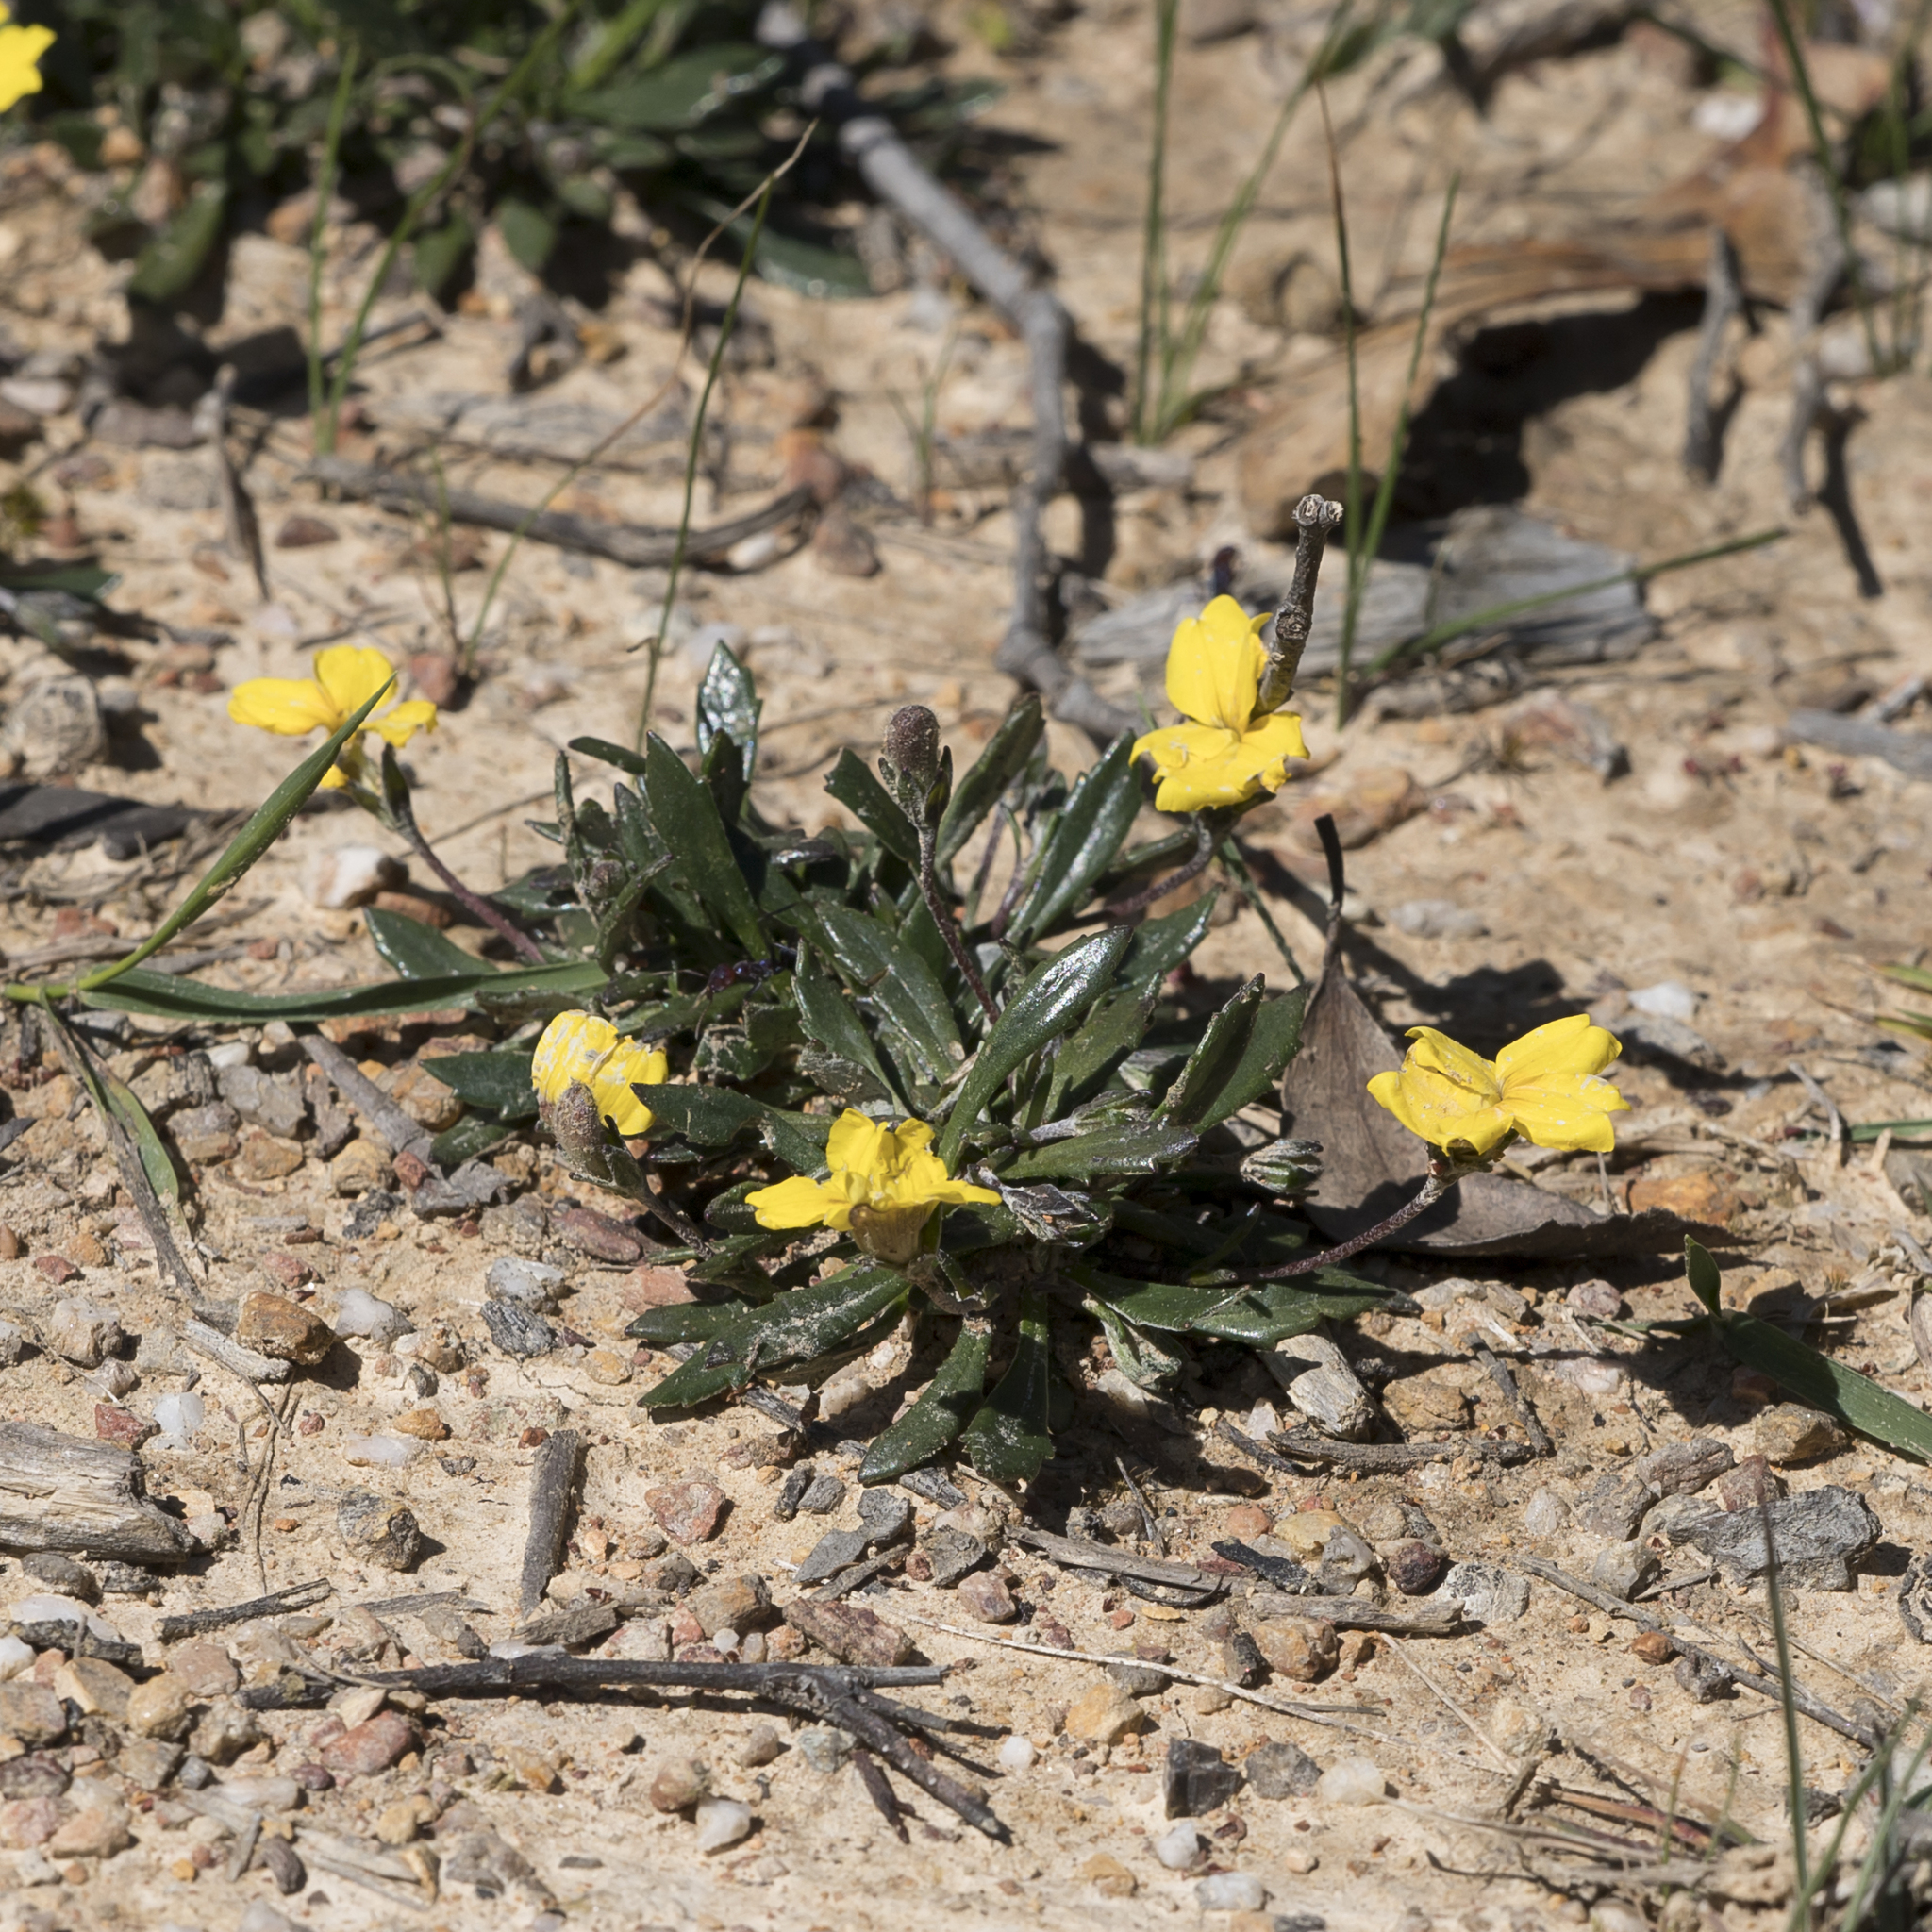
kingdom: Plantae
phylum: Tracheophyta
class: Magnoliopsida
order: Asterales
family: Goodeniaceae
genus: Goodenia
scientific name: Goodenia blackiana
